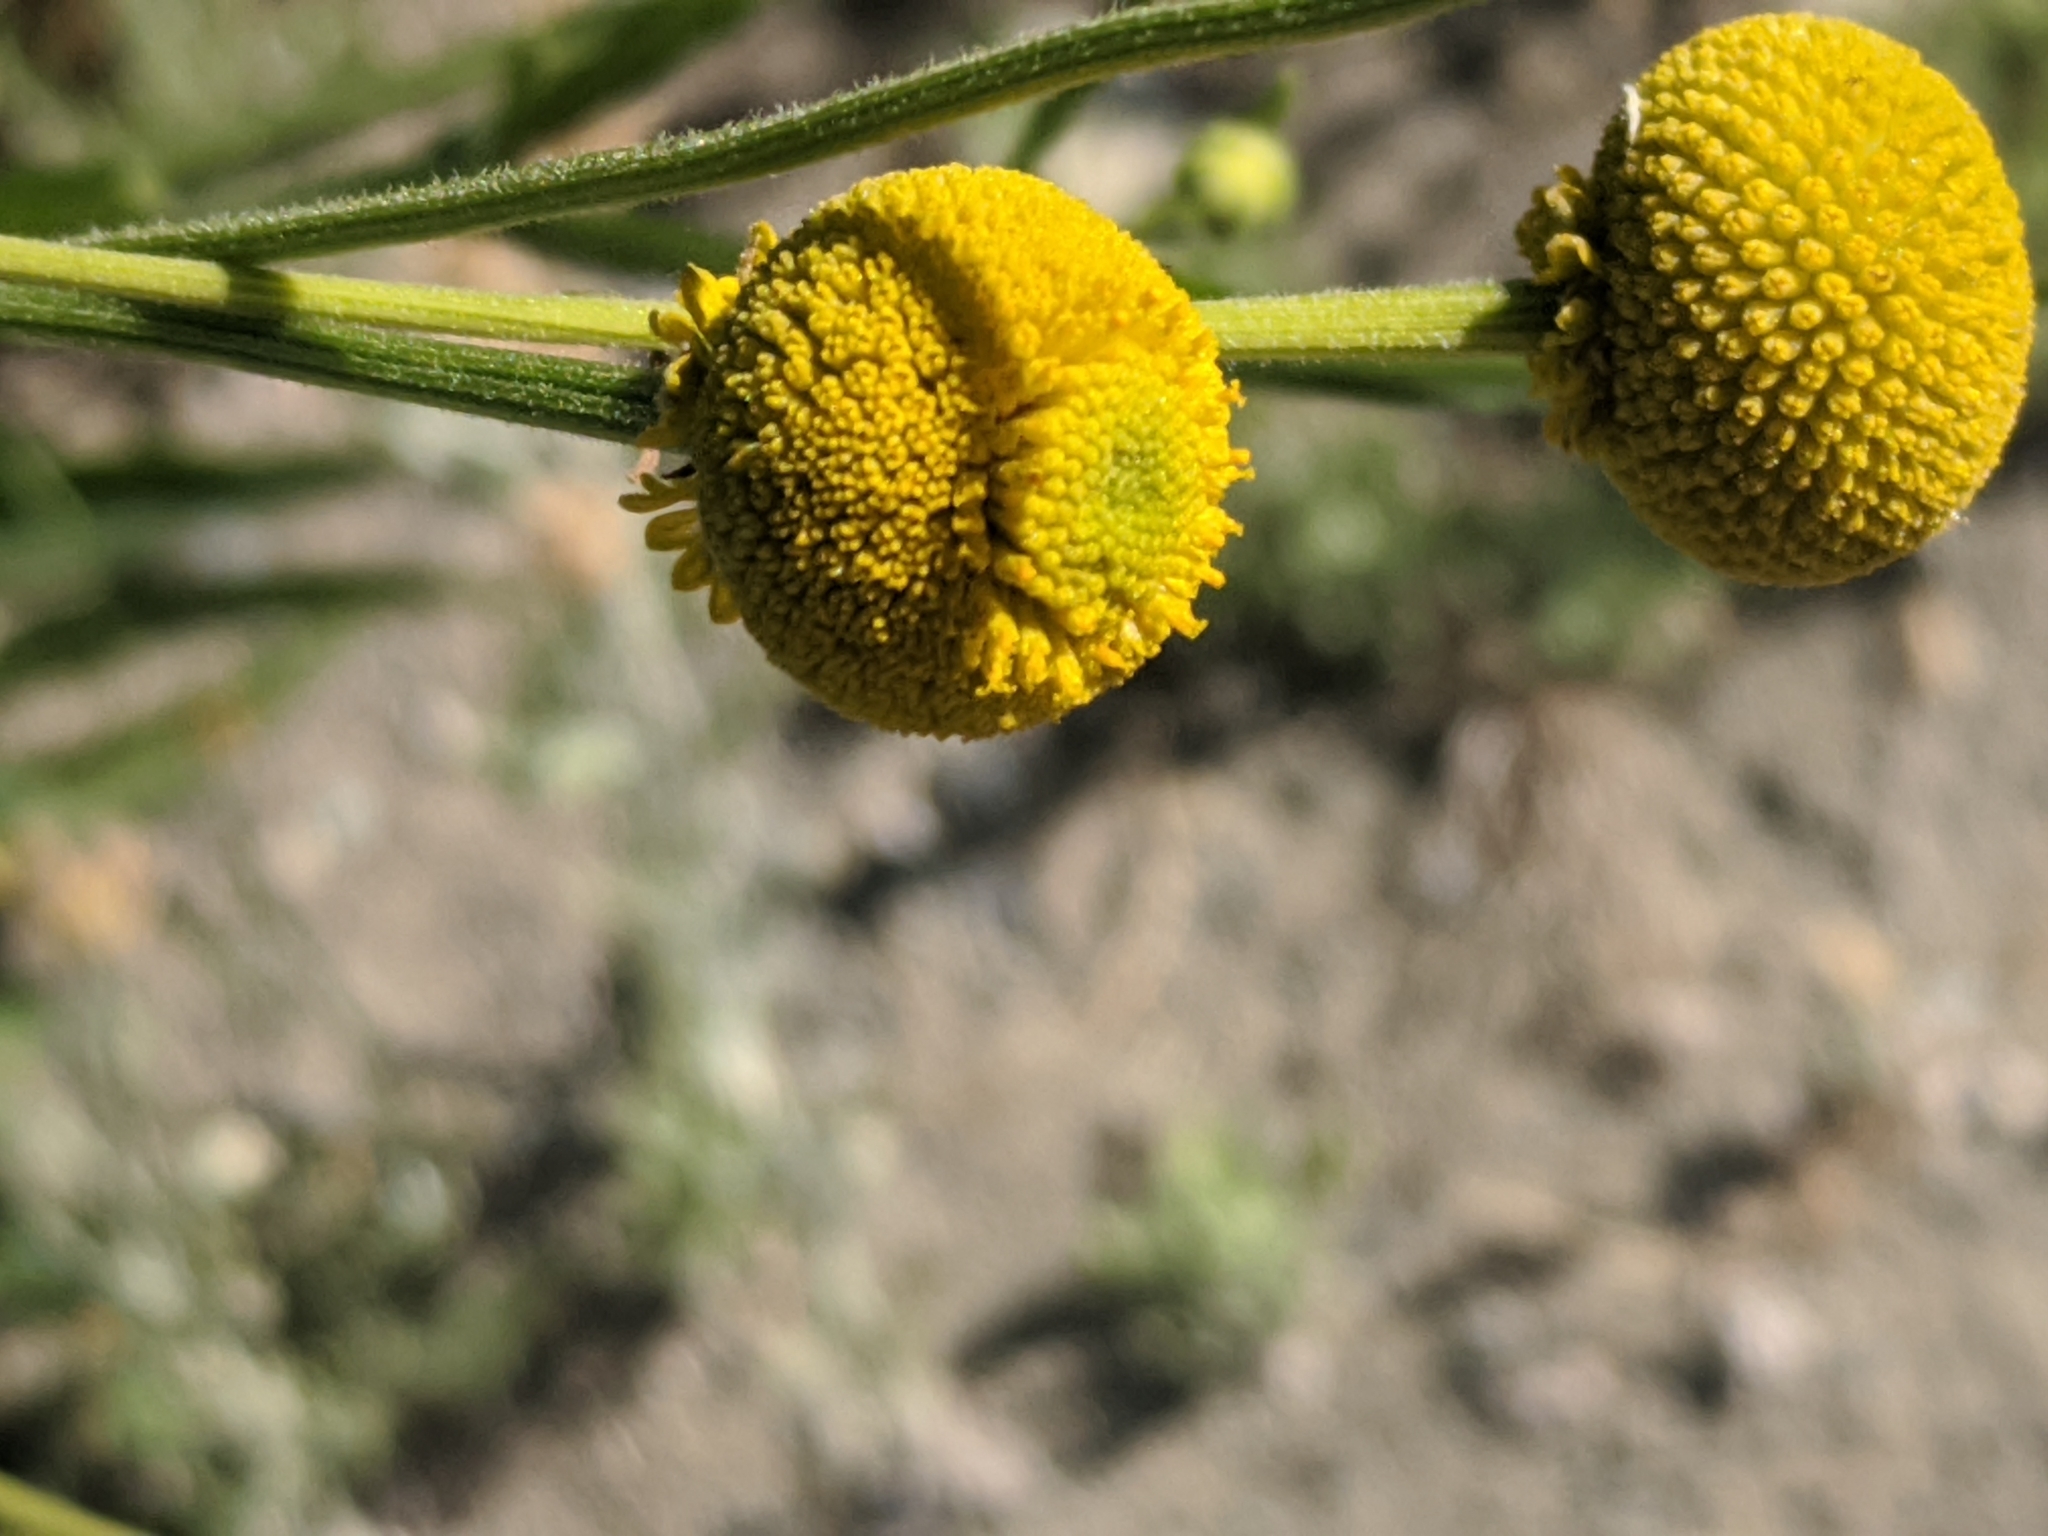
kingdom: Plantae
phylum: Tracheophyta
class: Magnoliopsida
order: Asterales
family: Asteraceae
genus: Helenium
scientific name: Helenium puberulum
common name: Sneezewort
